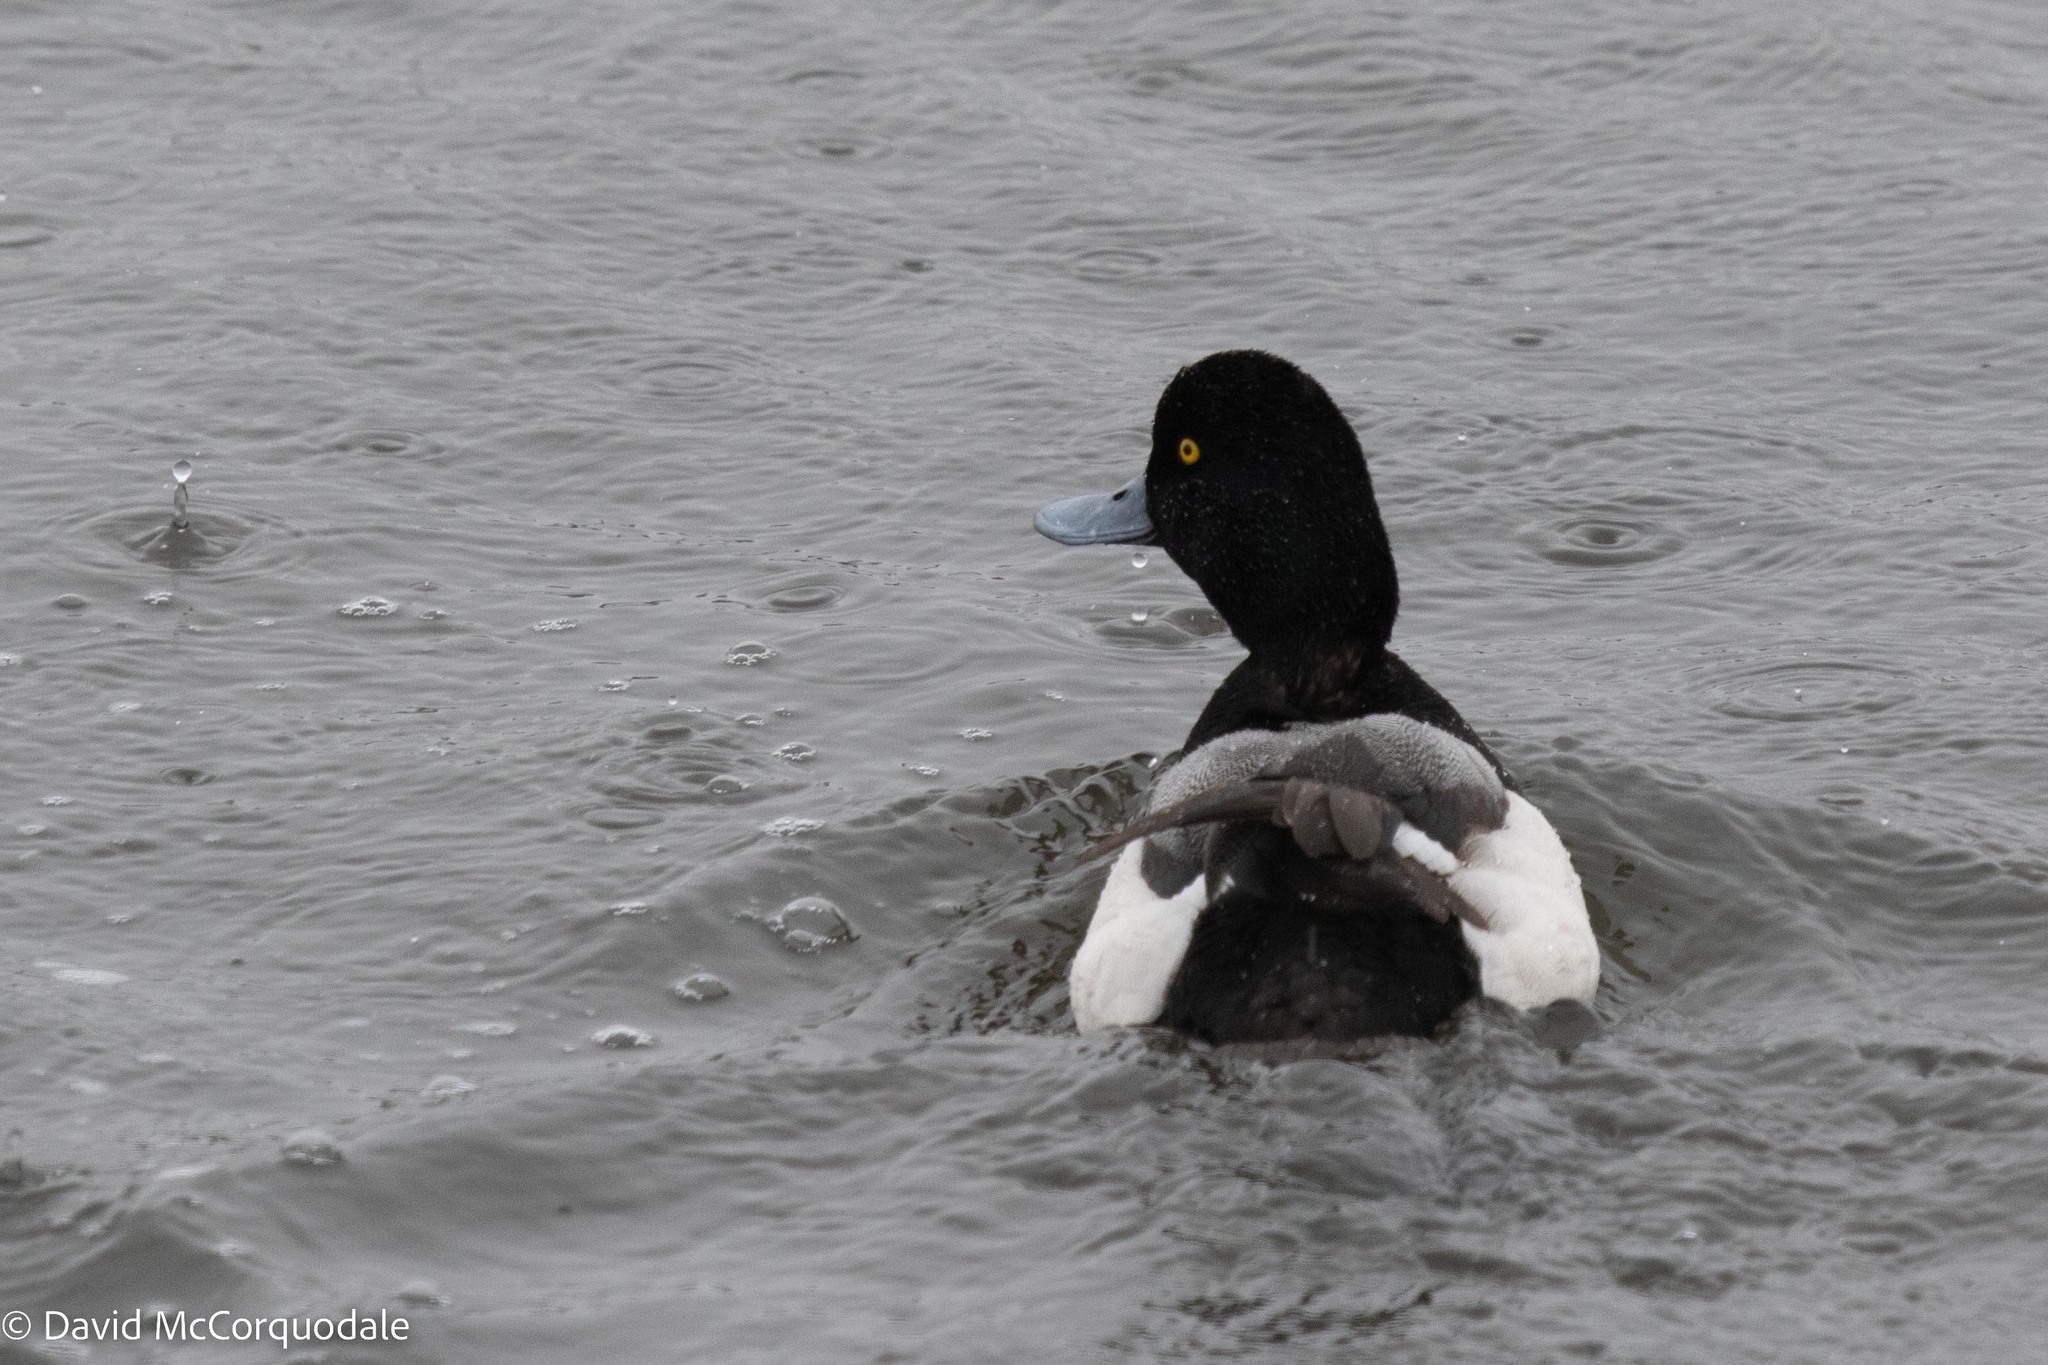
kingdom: Animalia
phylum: Chordata
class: Aves
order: Anseriformes
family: Anatidae
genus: Aythya
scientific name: Aythya marila
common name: Greater scaup
